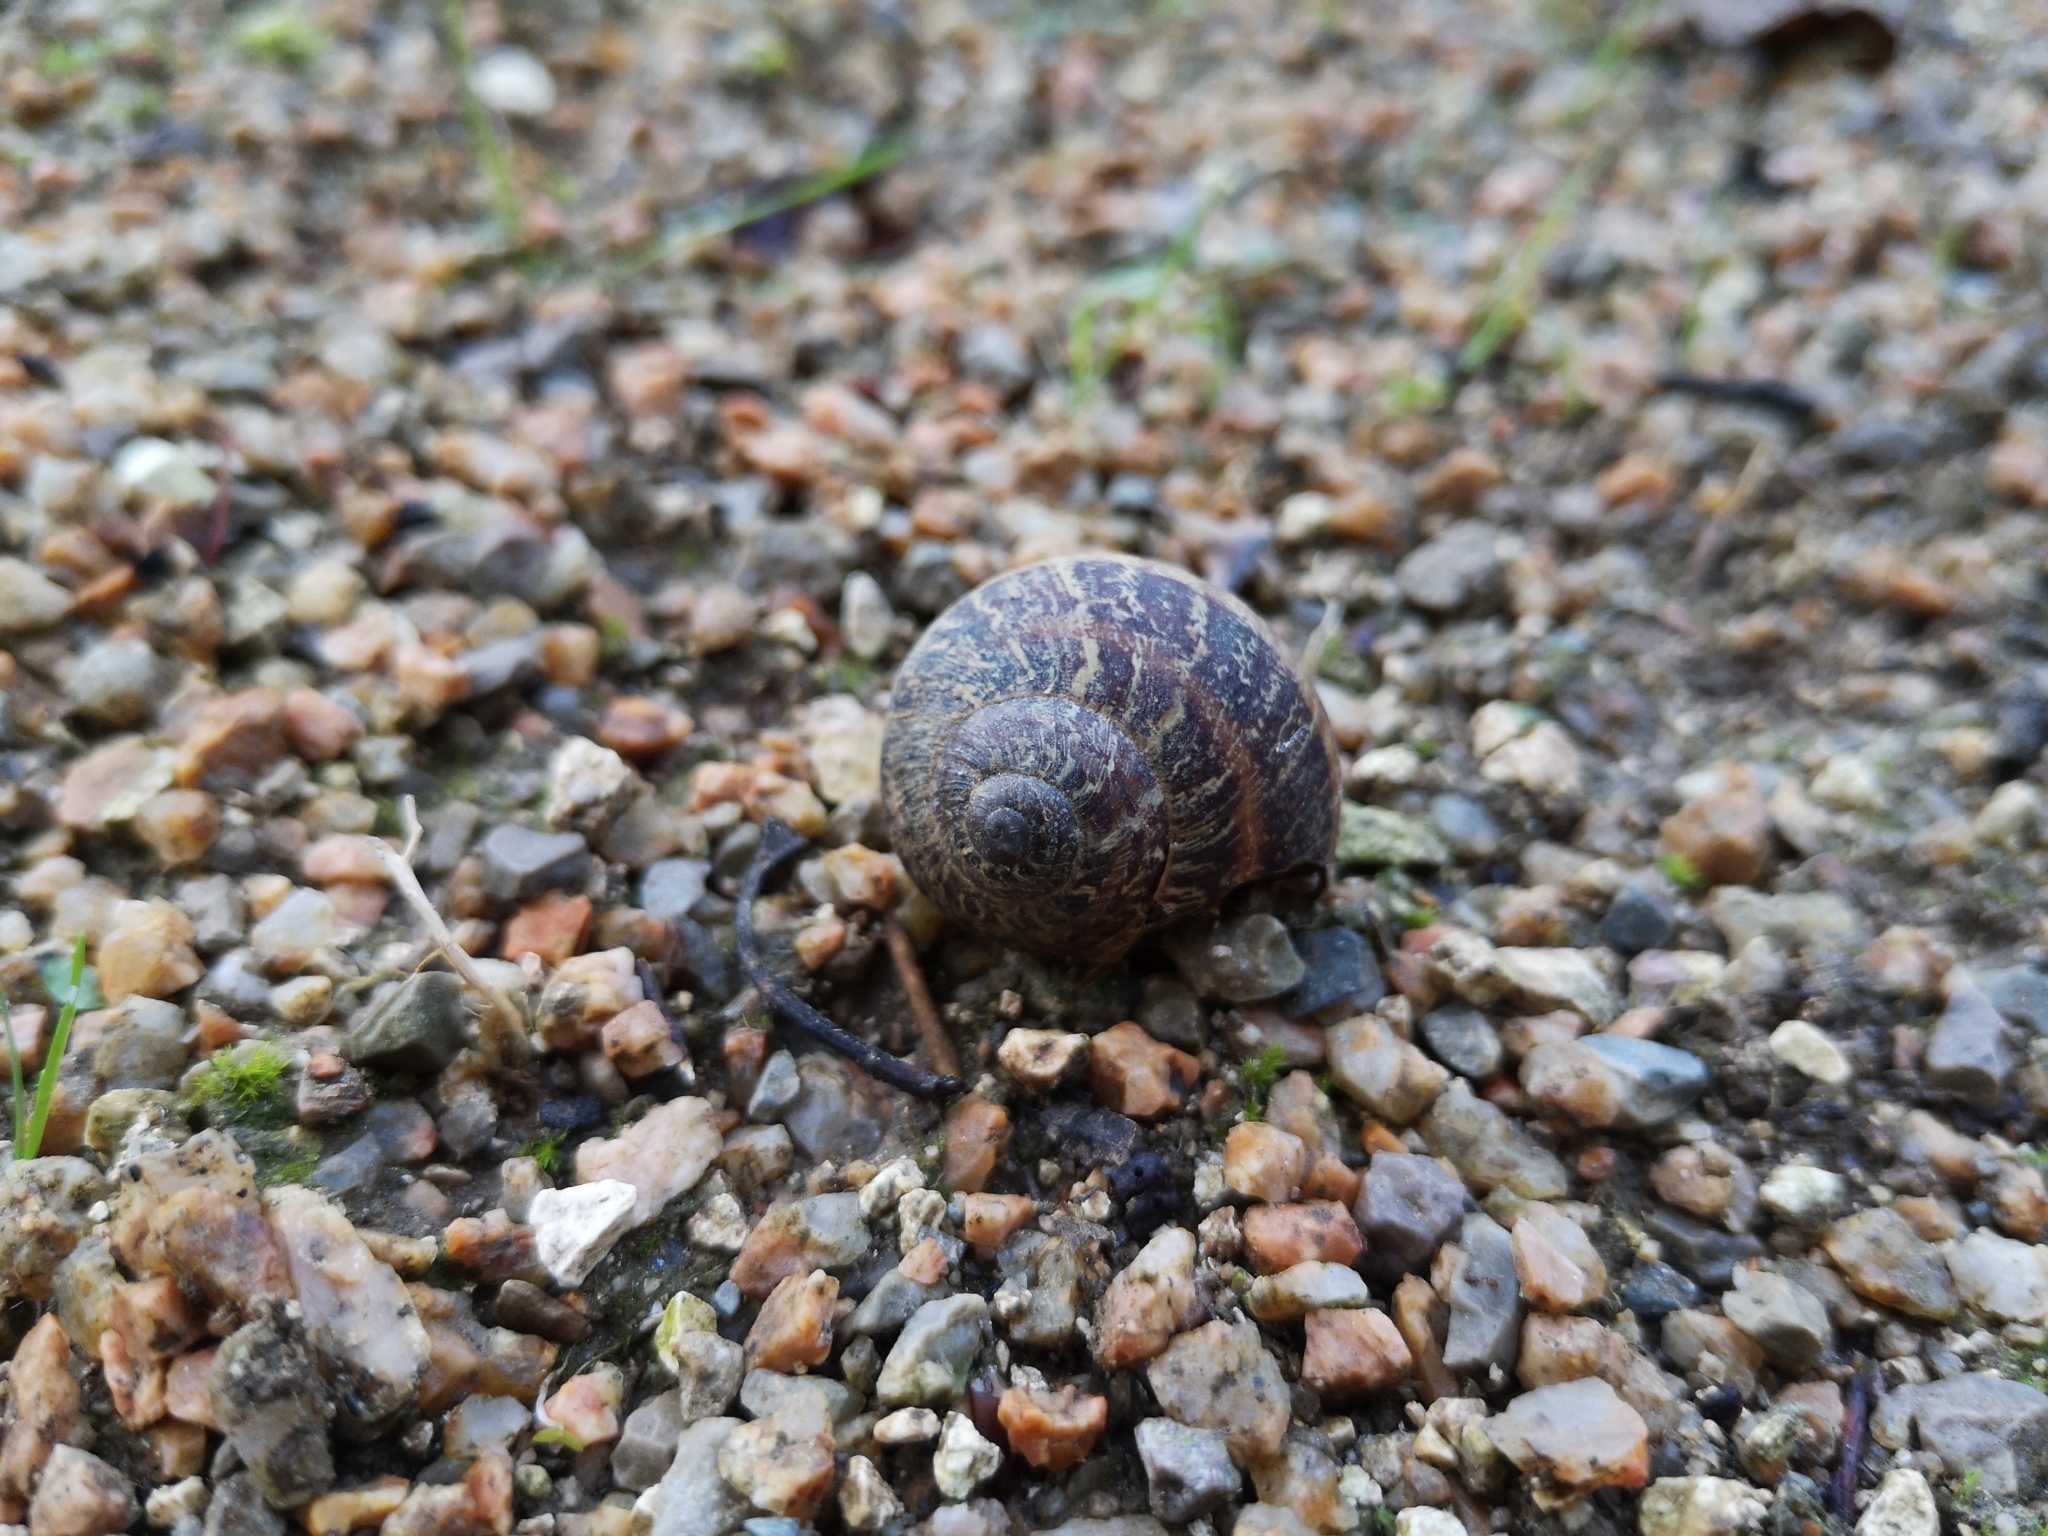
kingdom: Animalia
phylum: Mollusca
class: Gastropoda
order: Stylommatophora
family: Helicidae
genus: Cornu
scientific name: Cornu aspersum
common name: Brown garden snail
